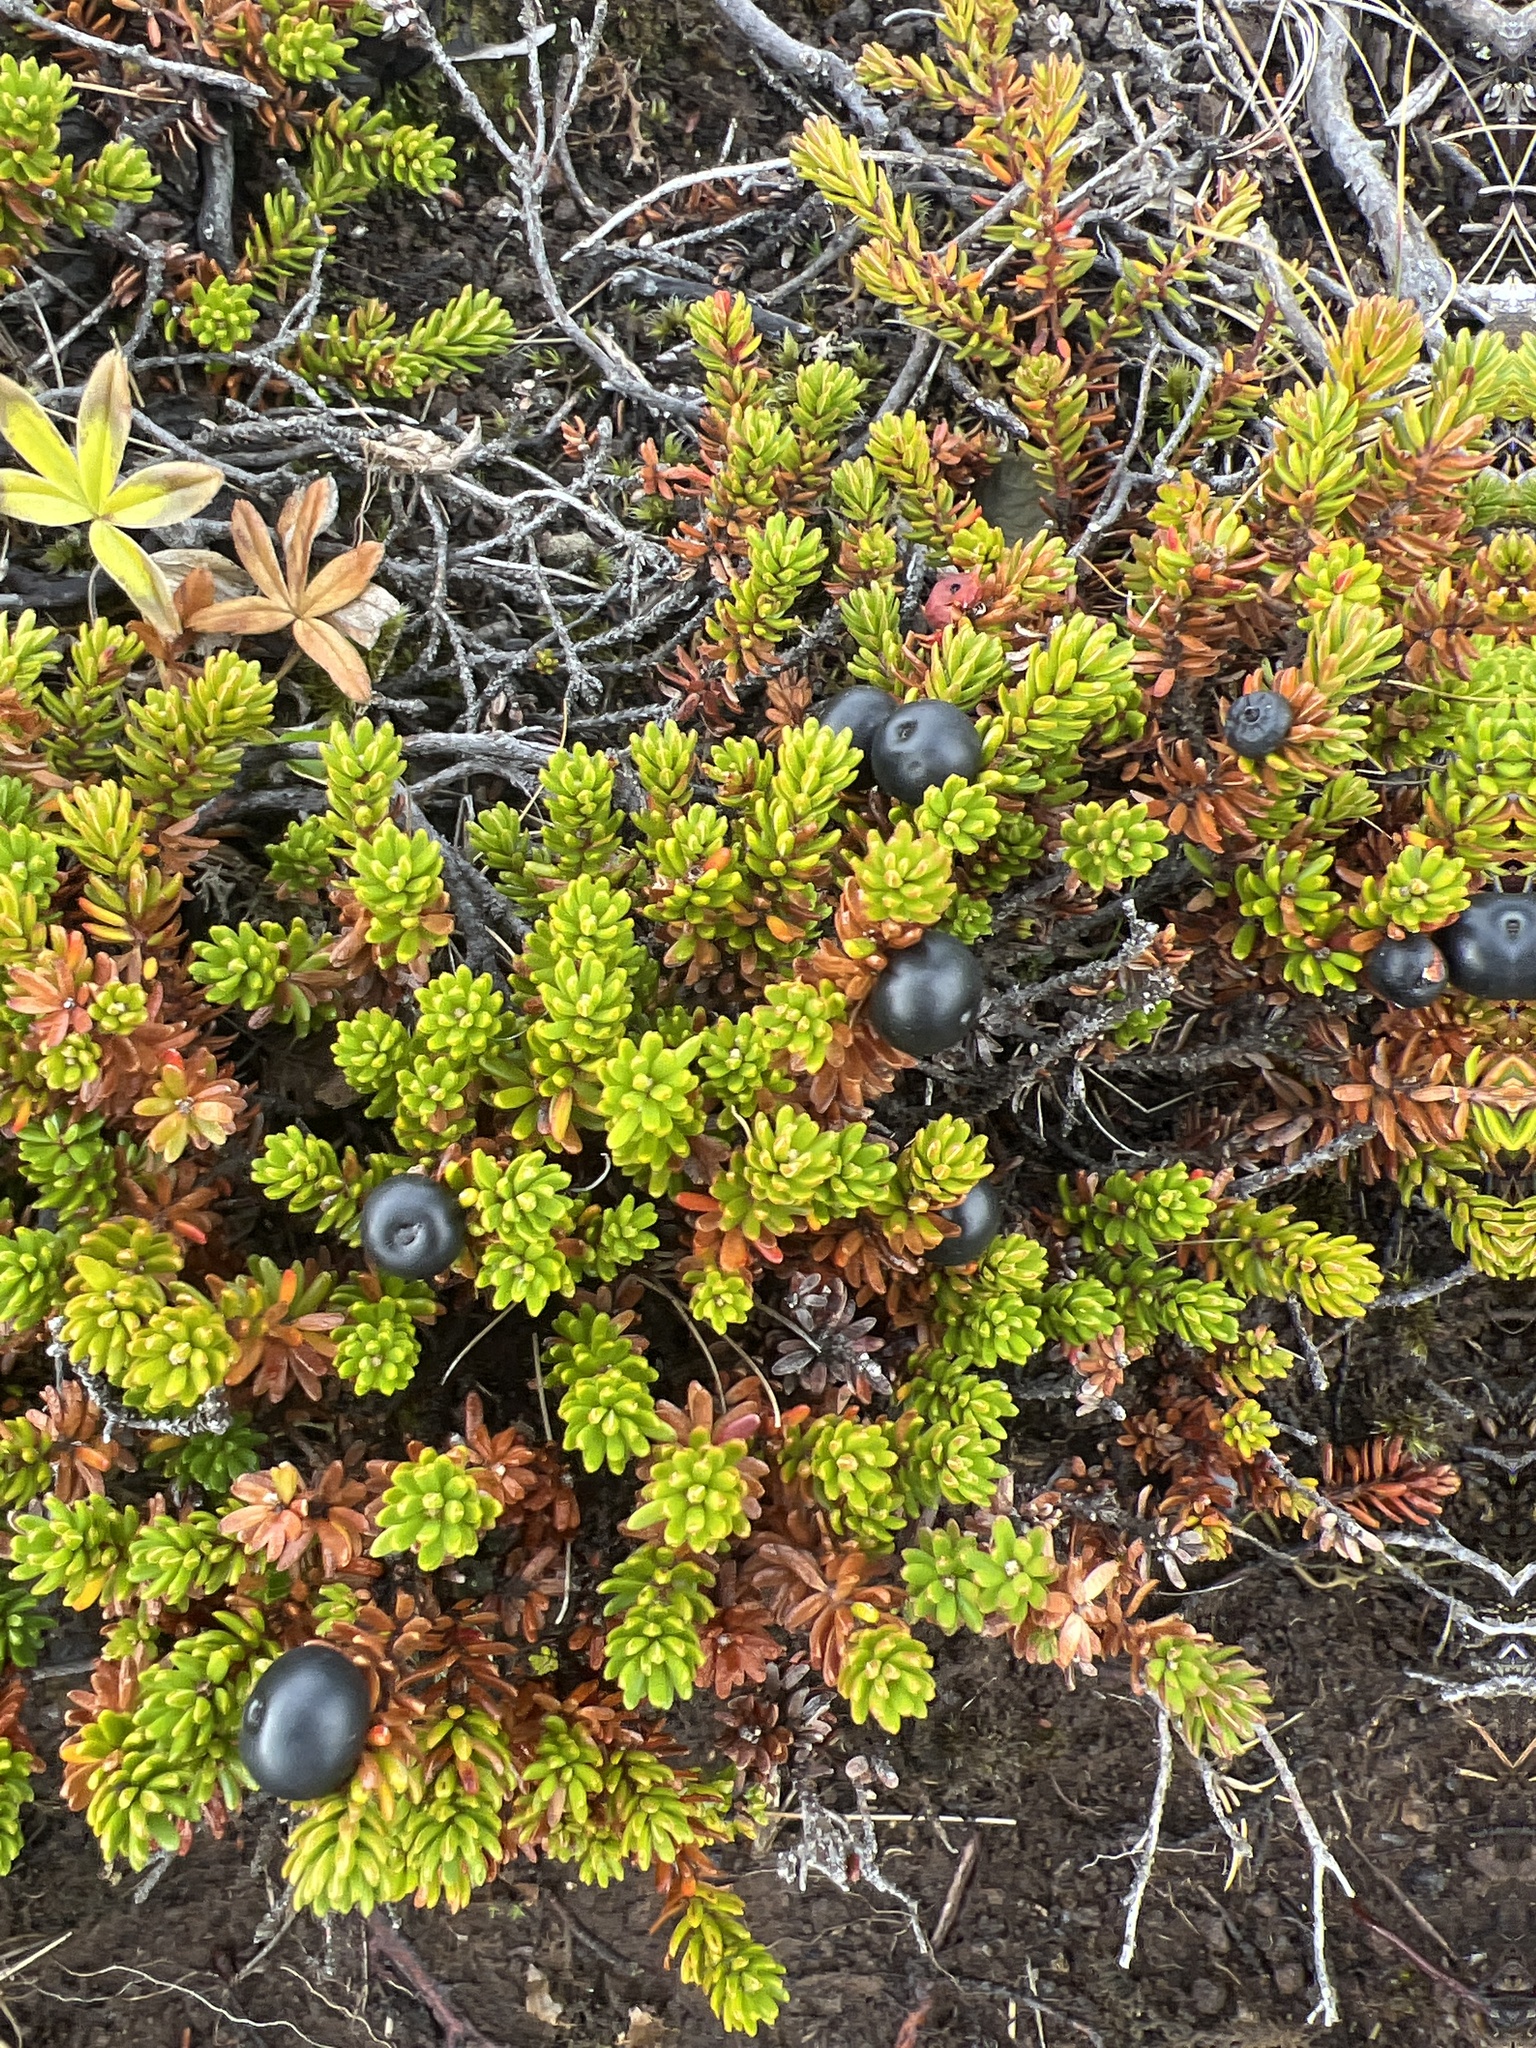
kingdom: Plantae
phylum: Tracheophyta
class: Magnoliopsida
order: Ericales
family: Ericaceae
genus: Empetrum
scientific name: Empetrum nigrum
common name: Black crowberry
